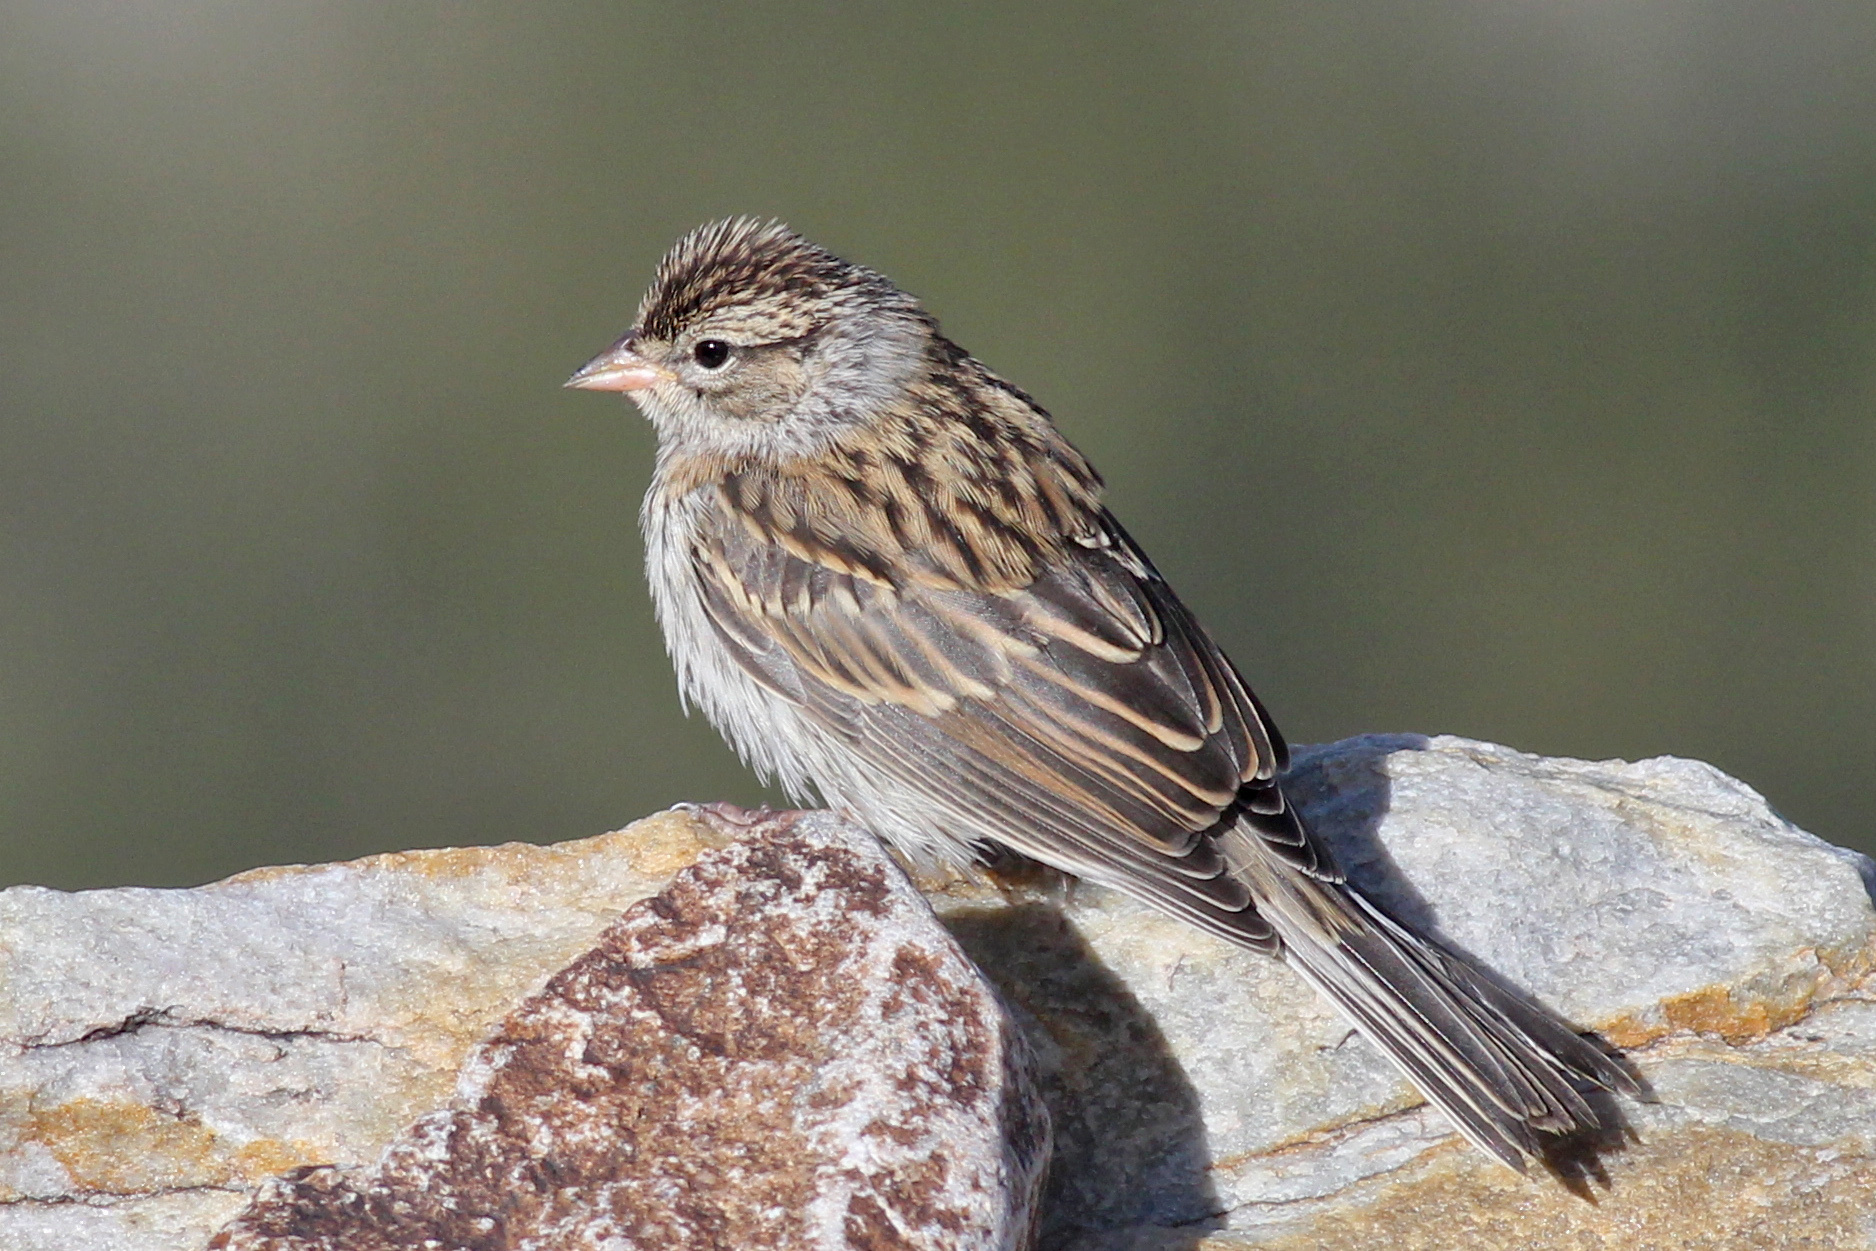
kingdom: Animalia
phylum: Chordata
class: Aves
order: Passeriformes
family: Passerellidae
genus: Spizella
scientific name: Spizella passerina
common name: Chipping sparrow
